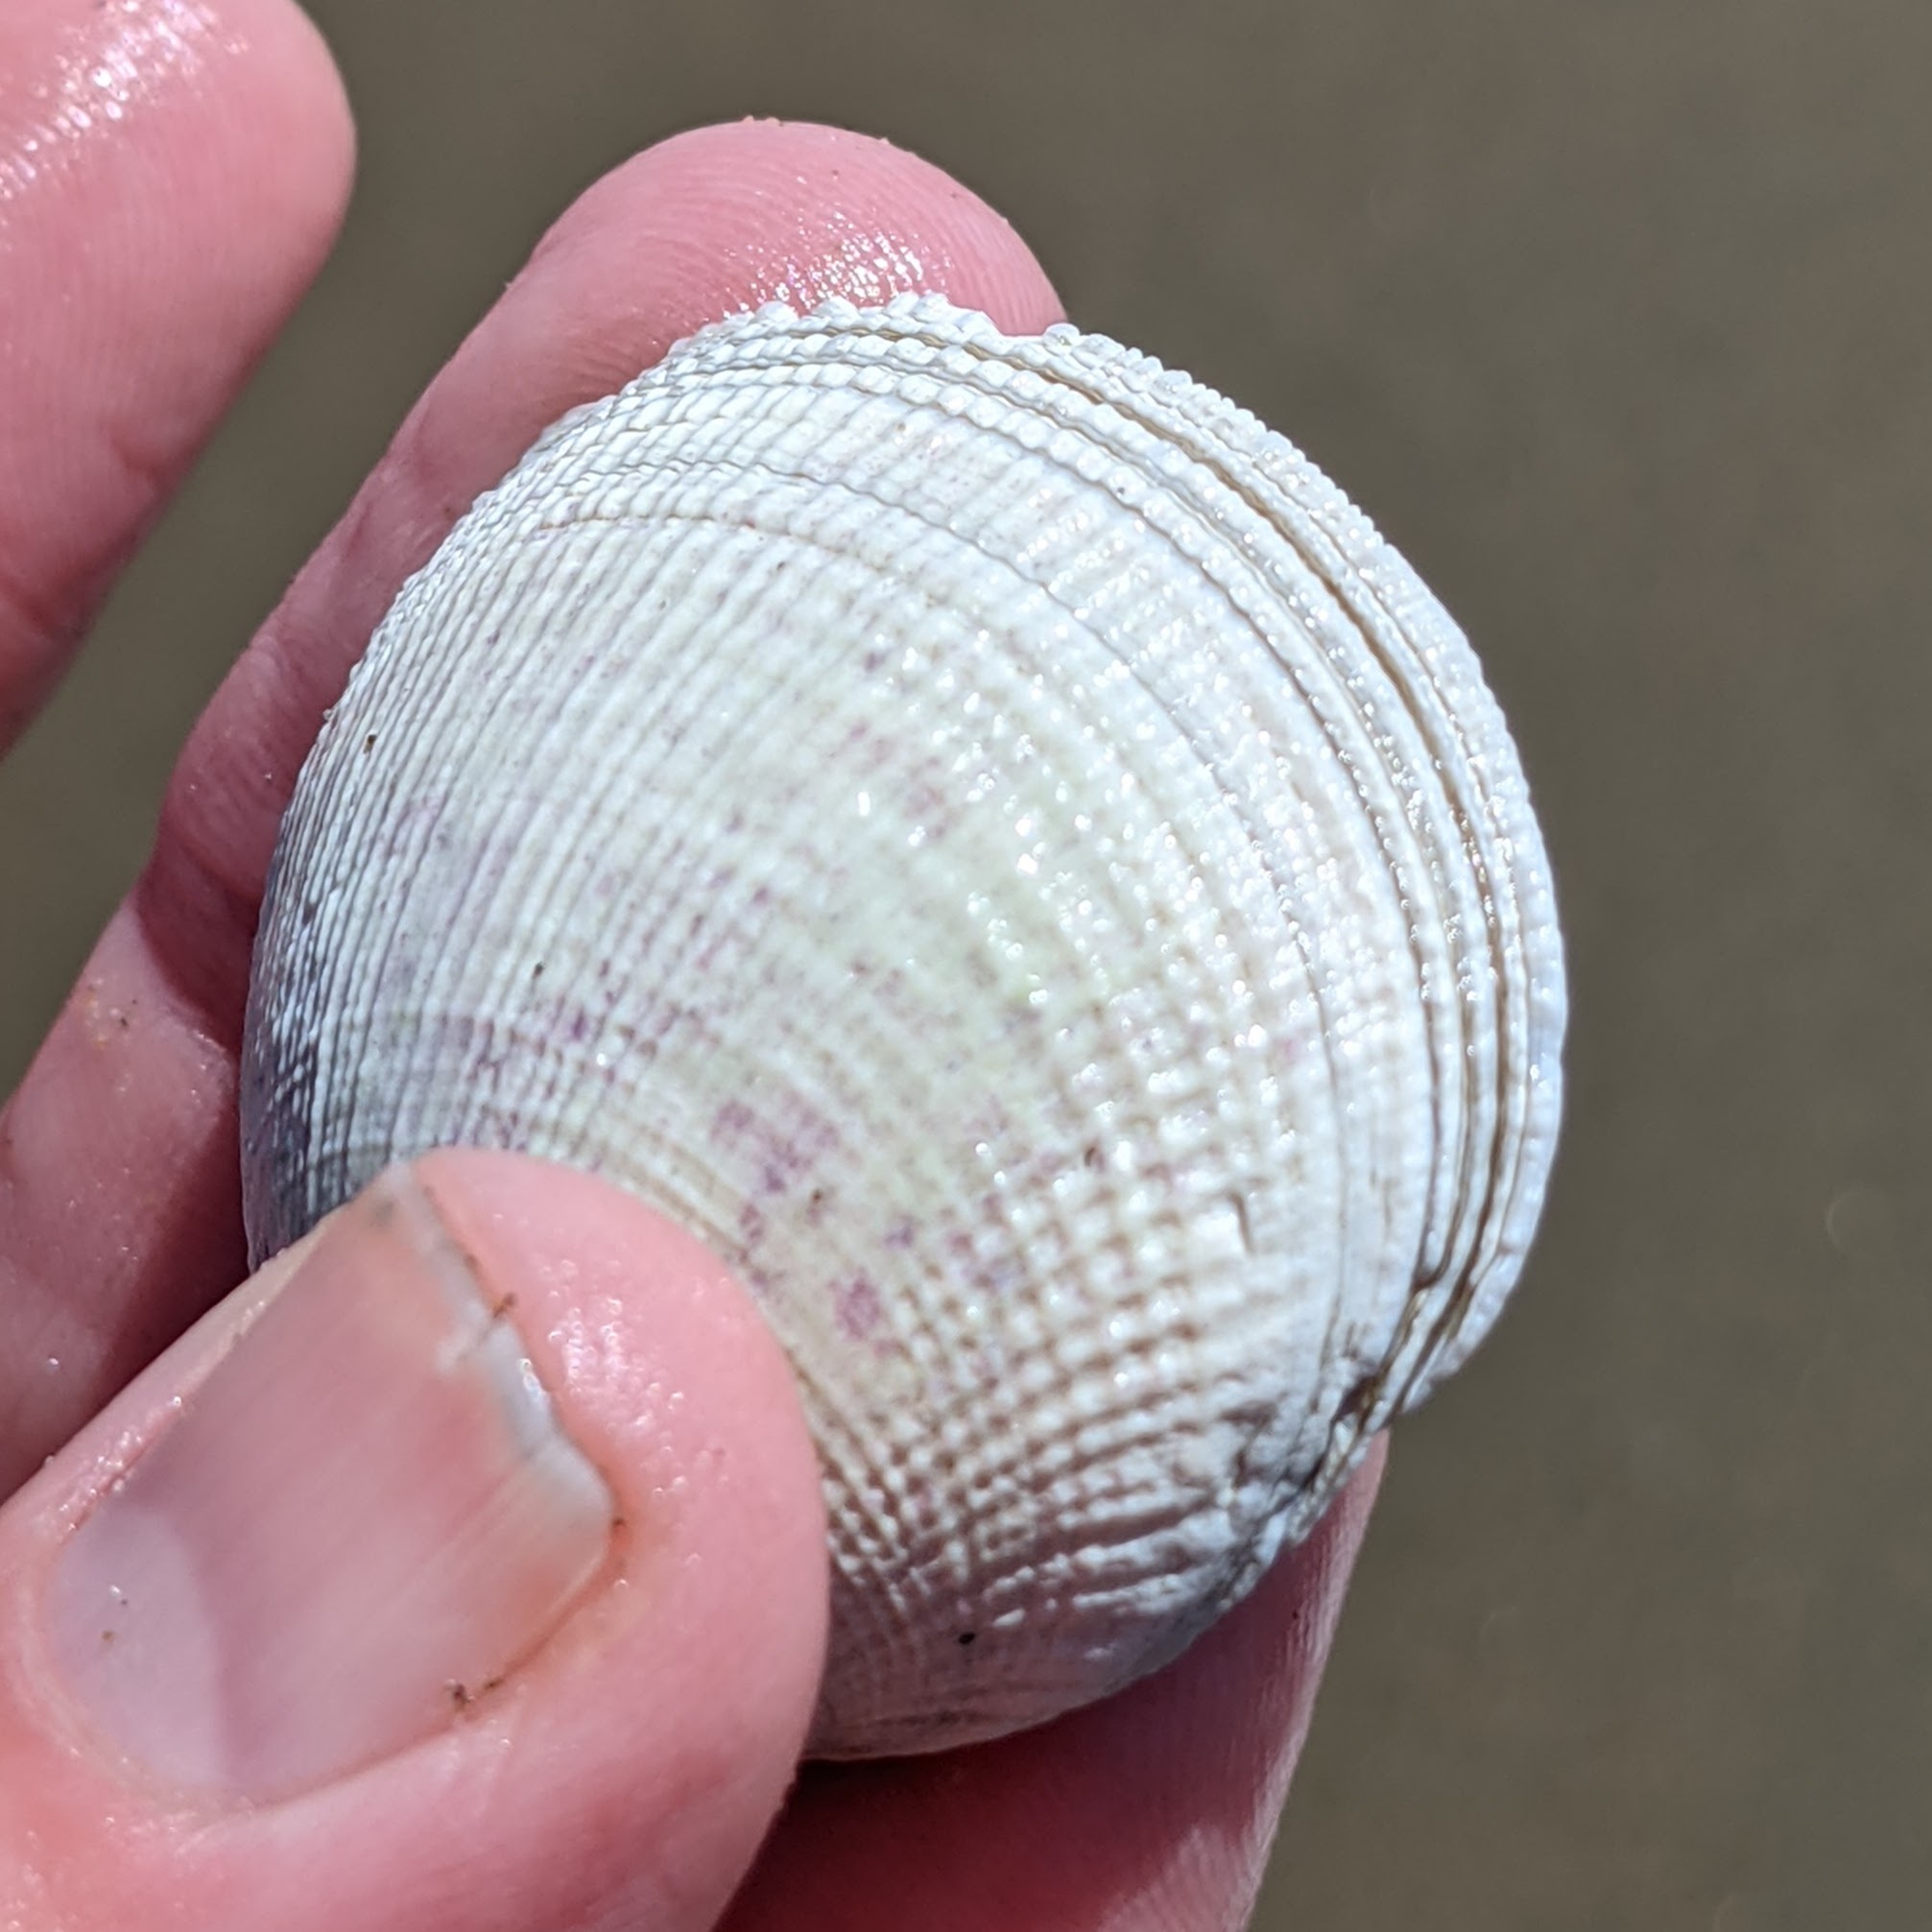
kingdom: Animalia
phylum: Mollusca
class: Bivalvia
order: Venerida
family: Veneridae
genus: Leukoma
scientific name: Leukoma staminea
